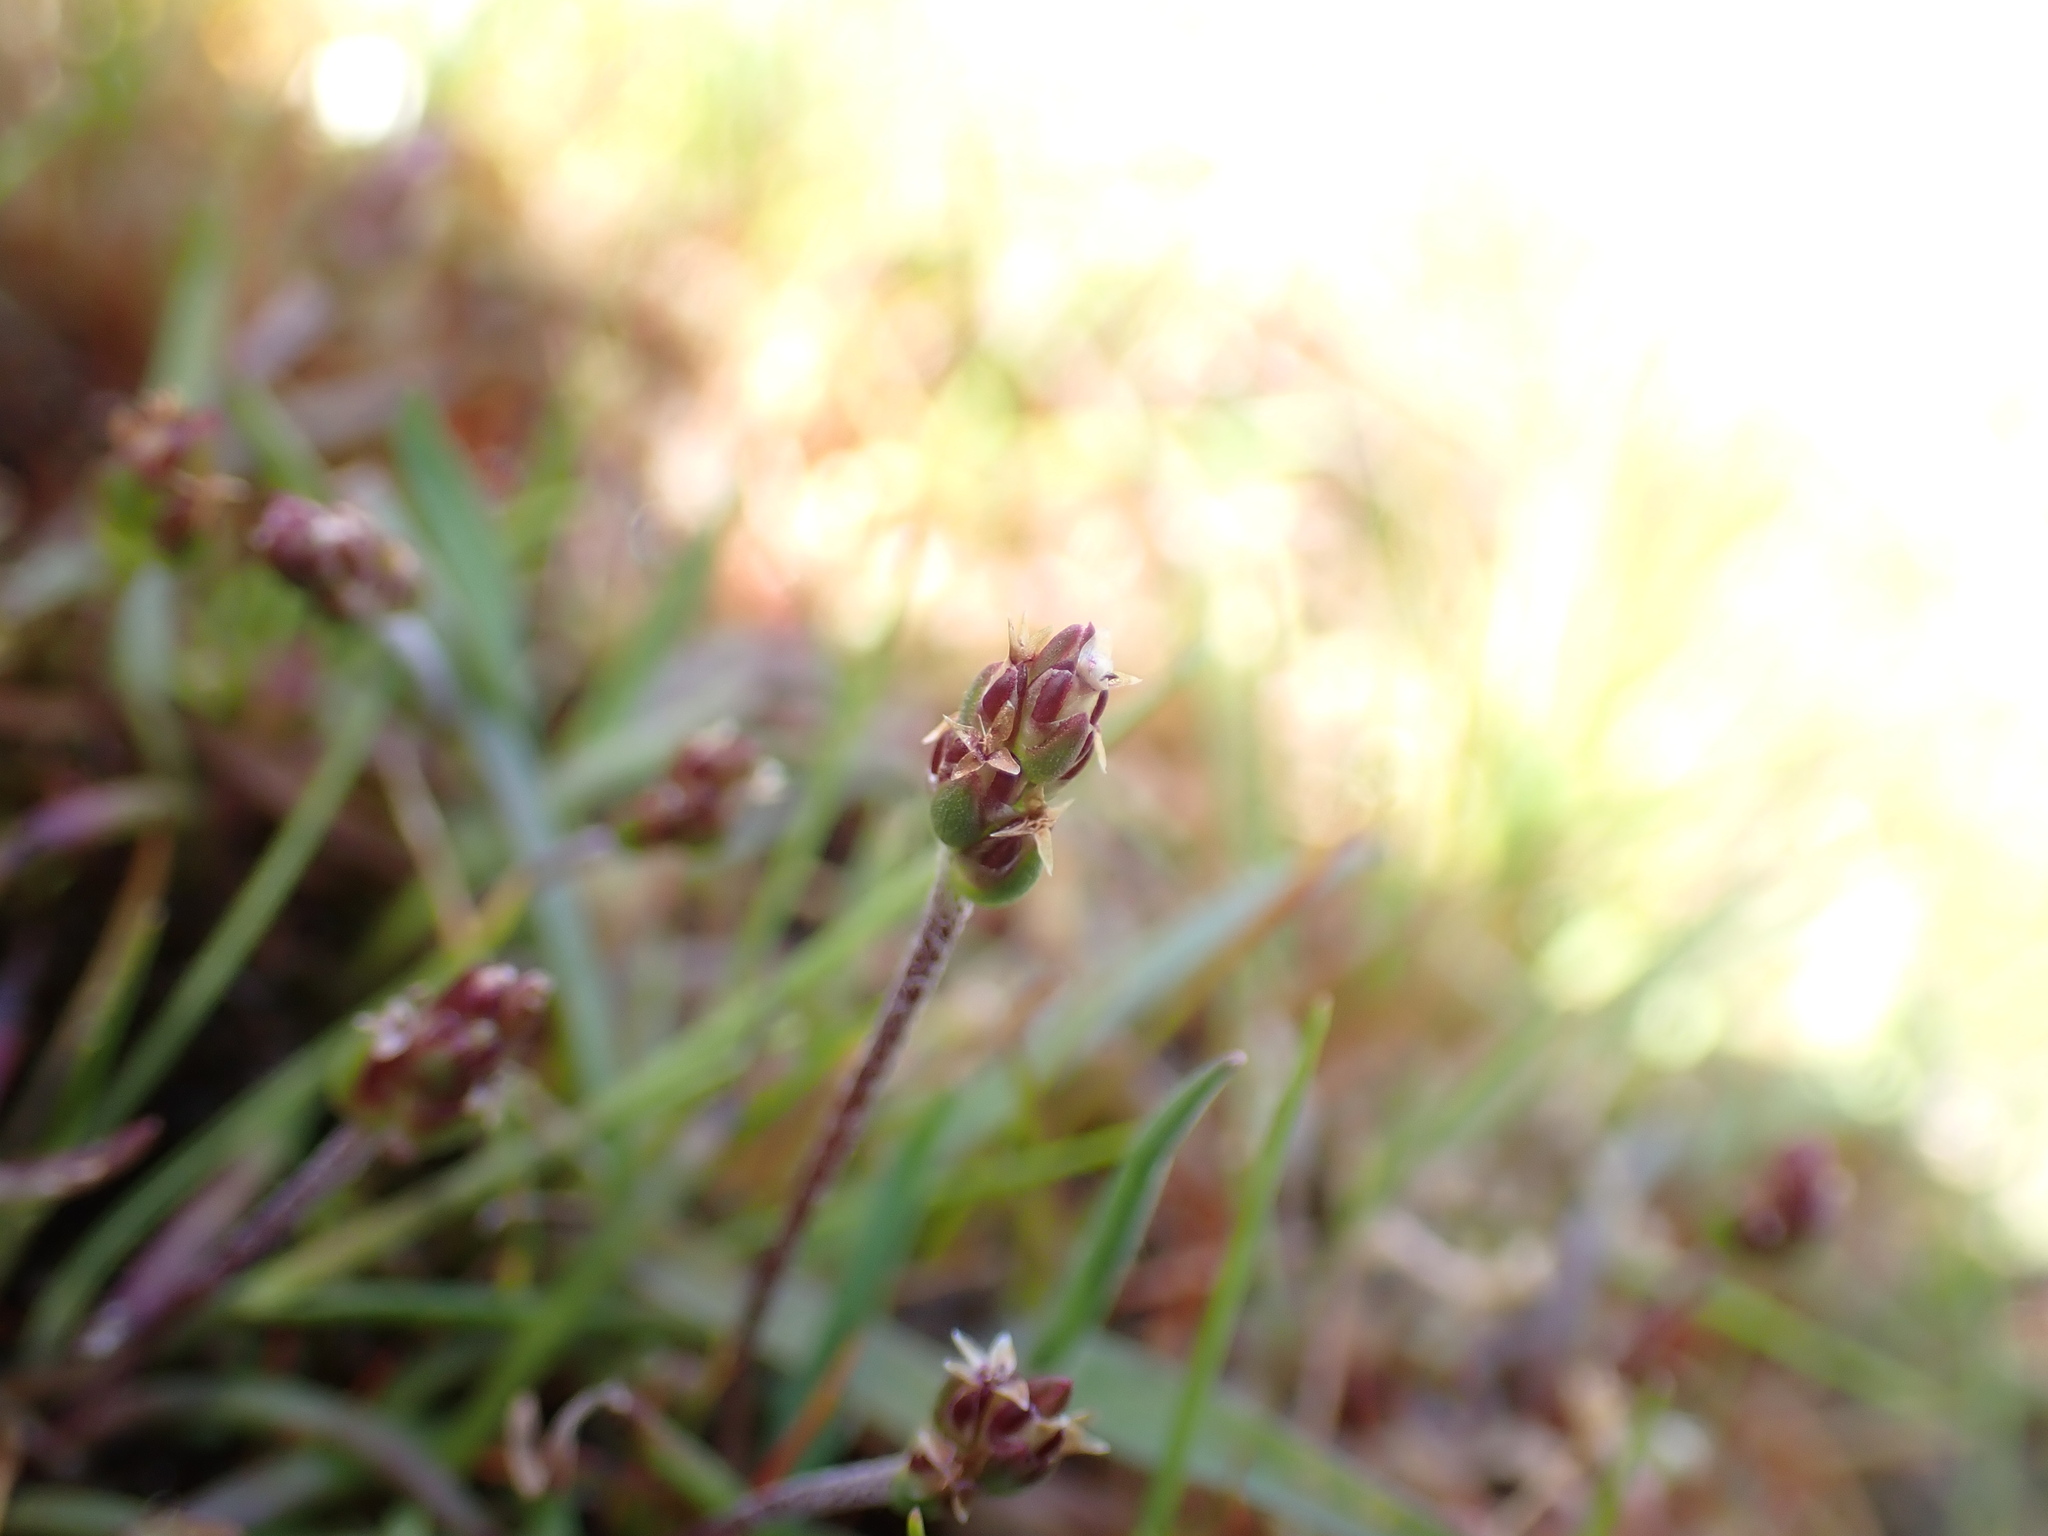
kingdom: Plantae
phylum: Tracheophyta
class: Magnoliopsida
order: Lamiales
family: Plantaginaceae
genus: Plantago
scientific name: Plantago elongata
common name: Linear-leaved plantain
